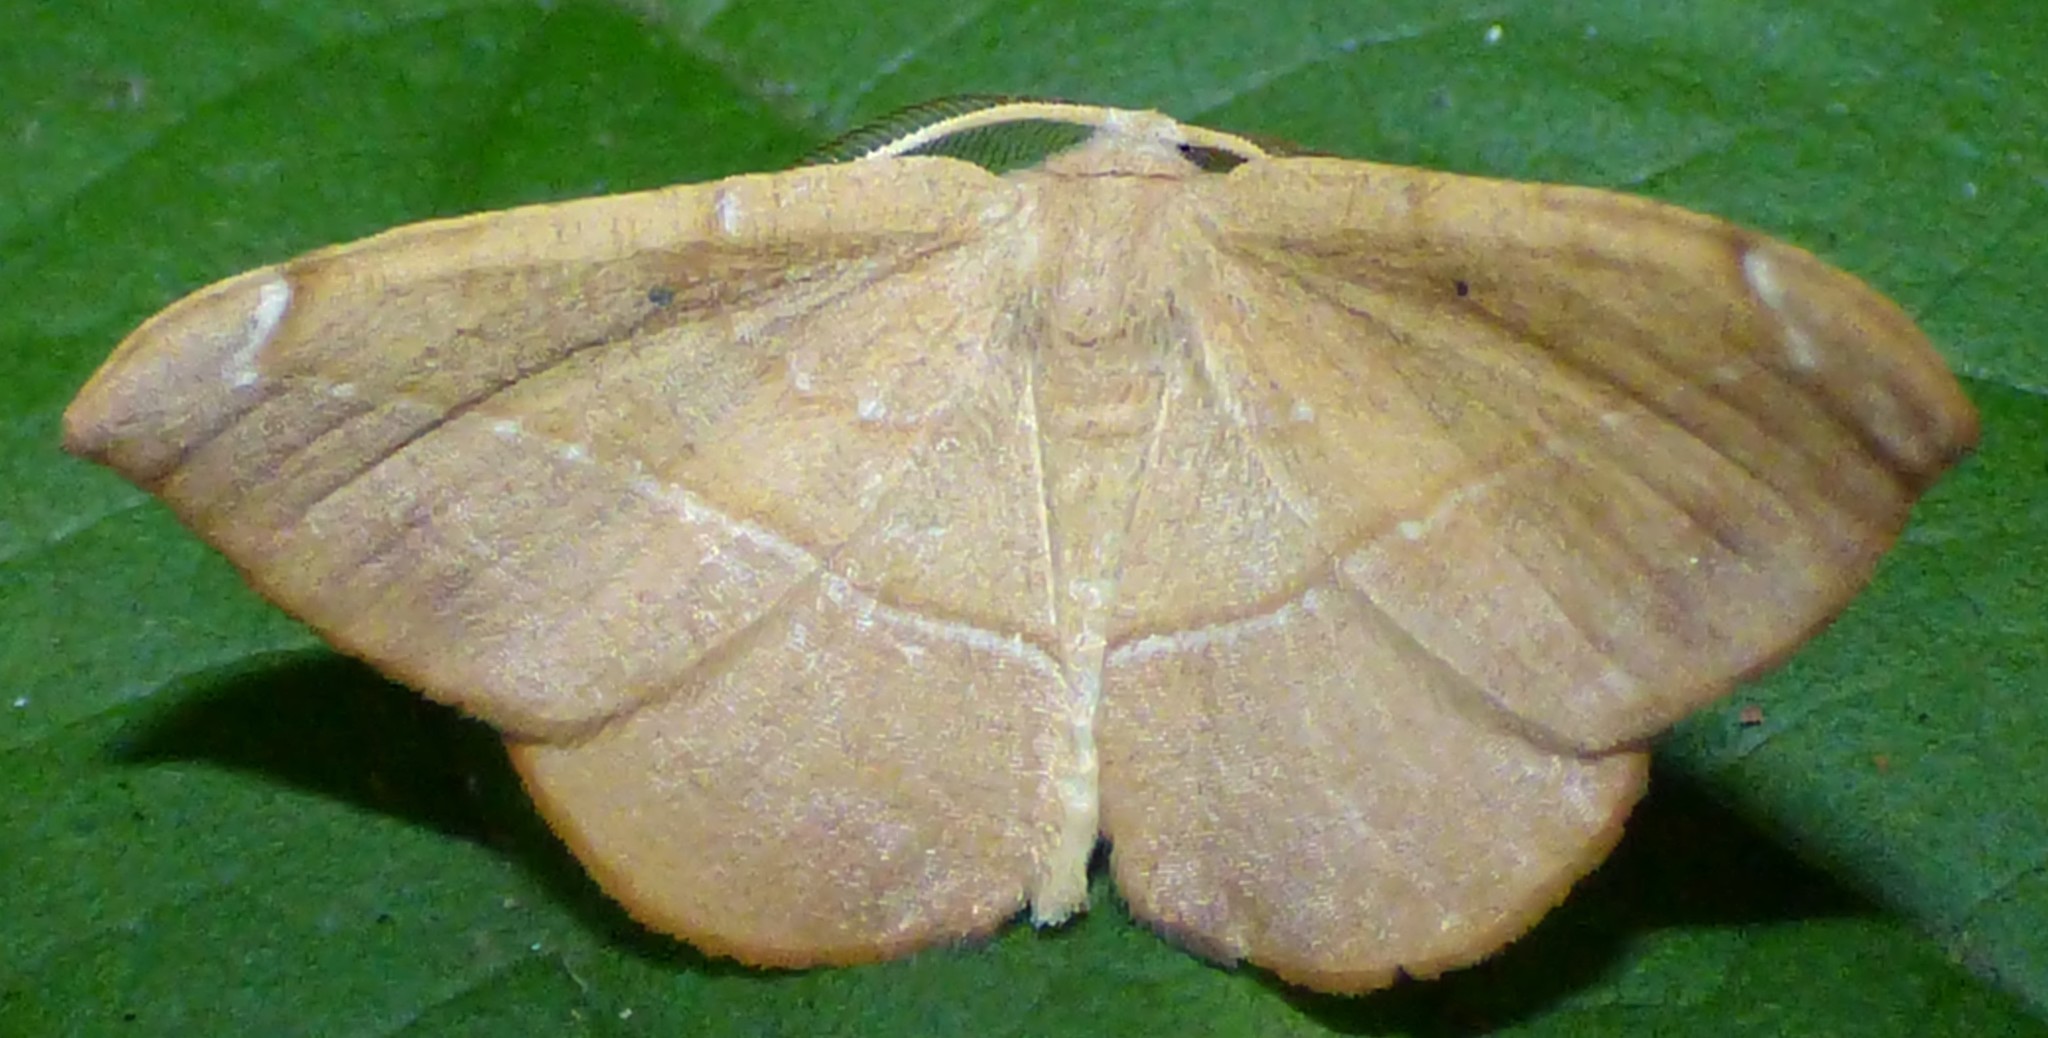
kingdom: Animalia
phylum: Arthropoda
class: Insecta
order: Lepidoptera
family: Geometridae
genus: Patalene
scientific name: Patalene olyzonaria
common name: Juniper geometer moth
